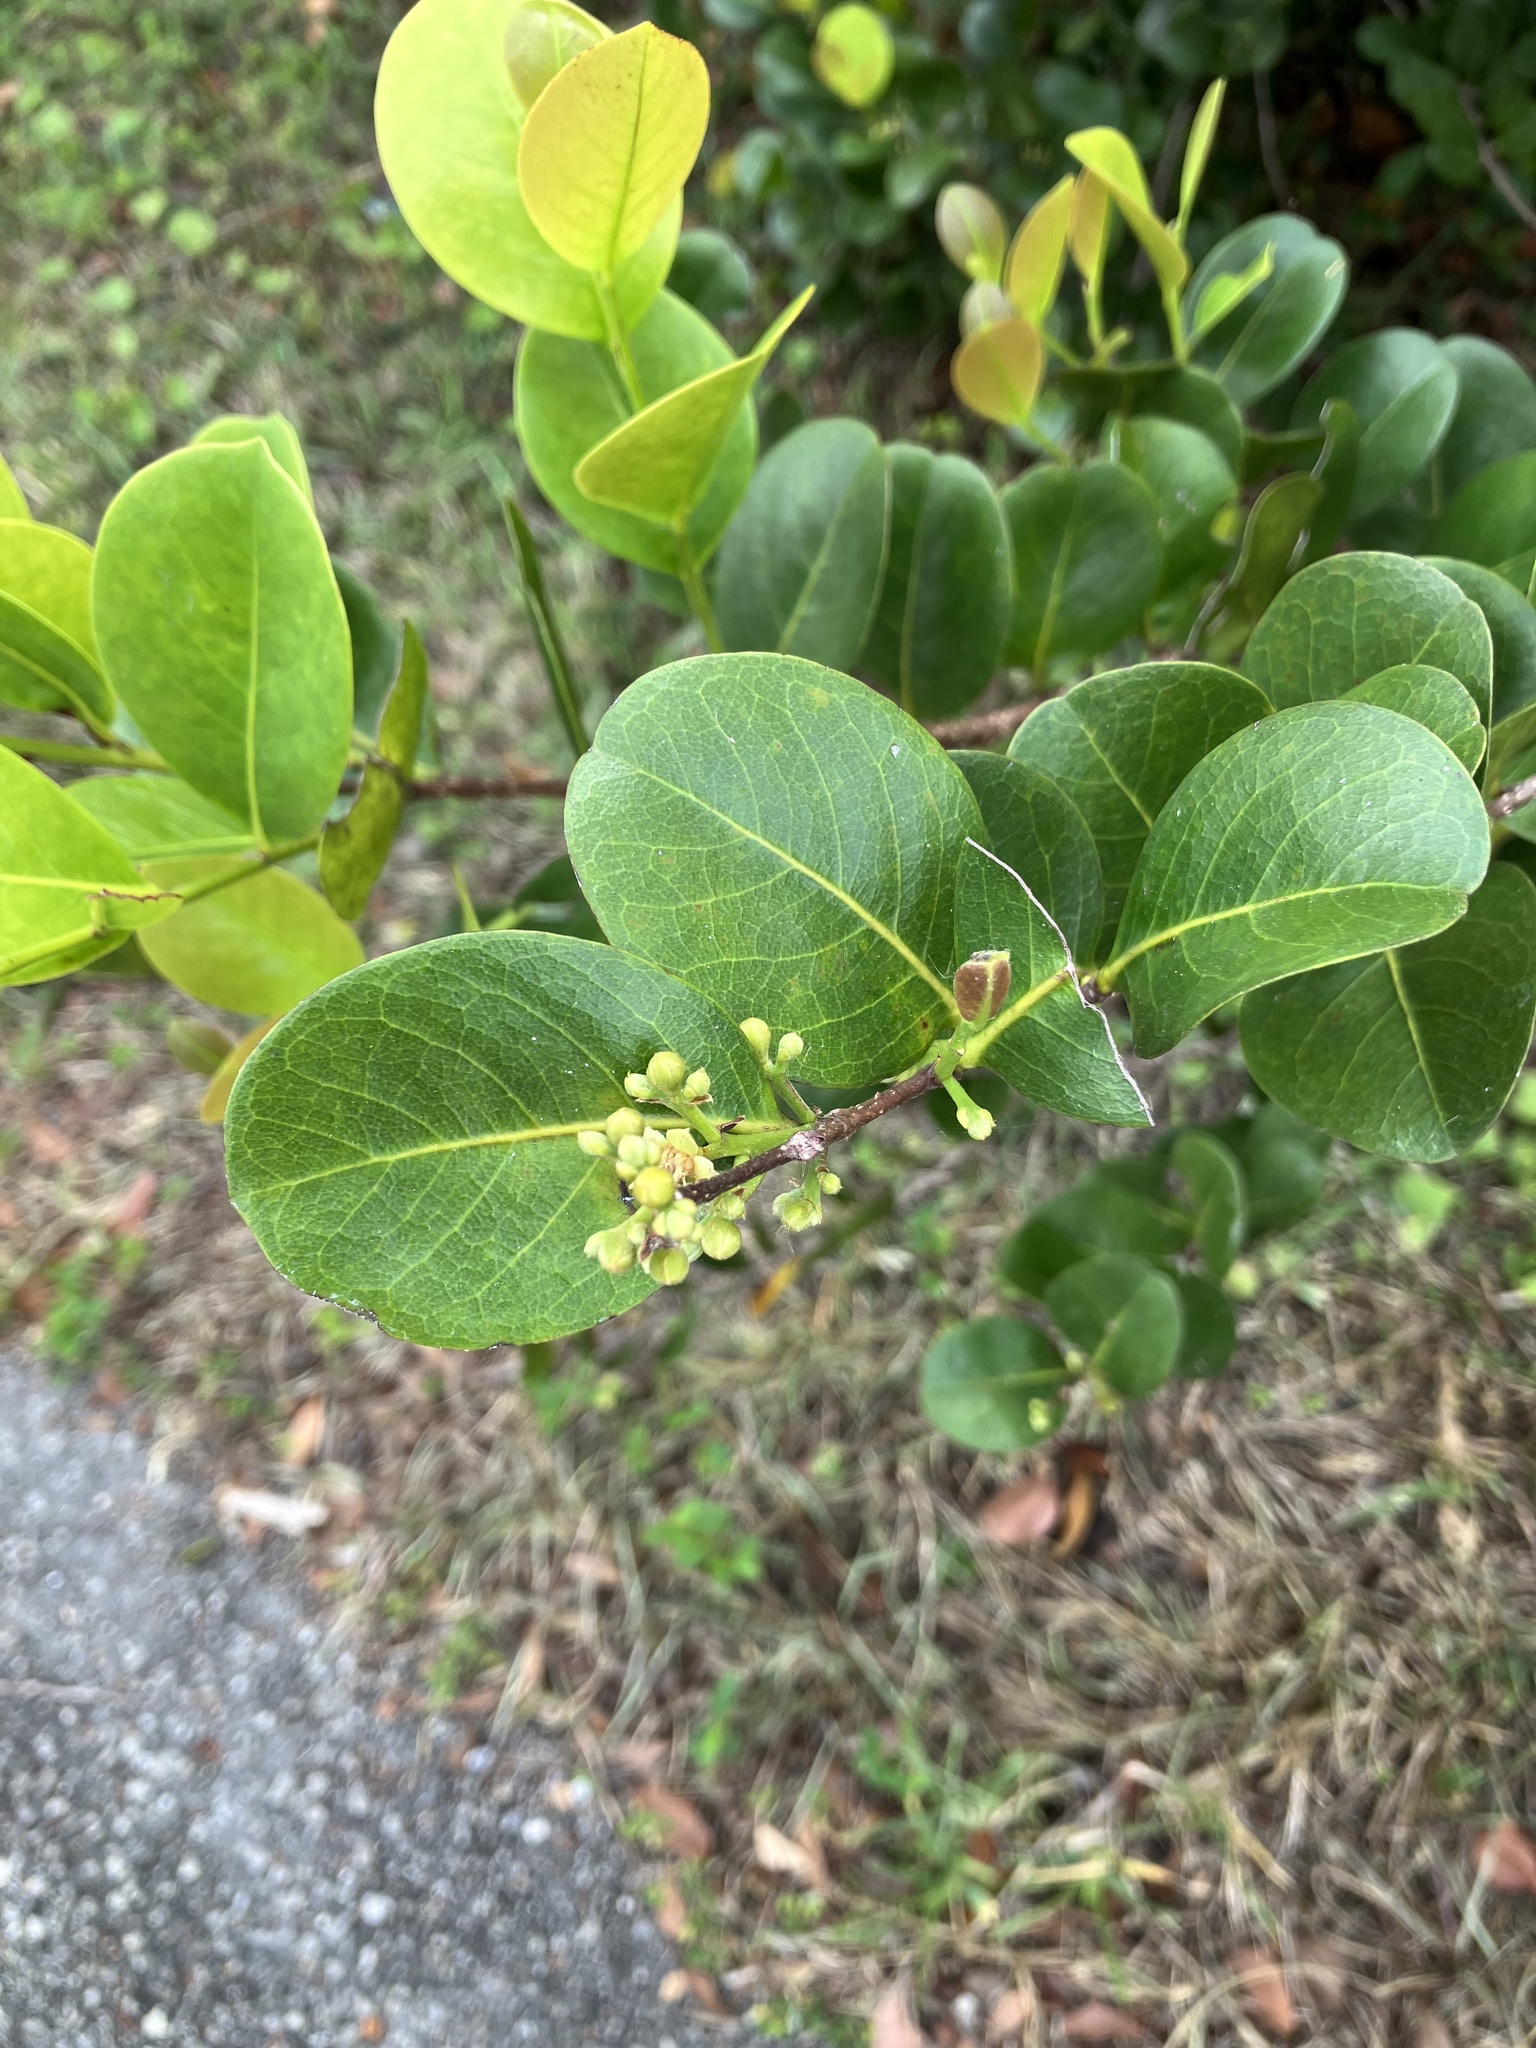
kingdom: Plantae
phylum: Tracheophyta
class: Magnoliopsida
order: Malpighiales
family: Chrysobalanaceae
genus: Chrysobalanus
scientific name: Chrysobalanus icaco
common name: Coco plum
